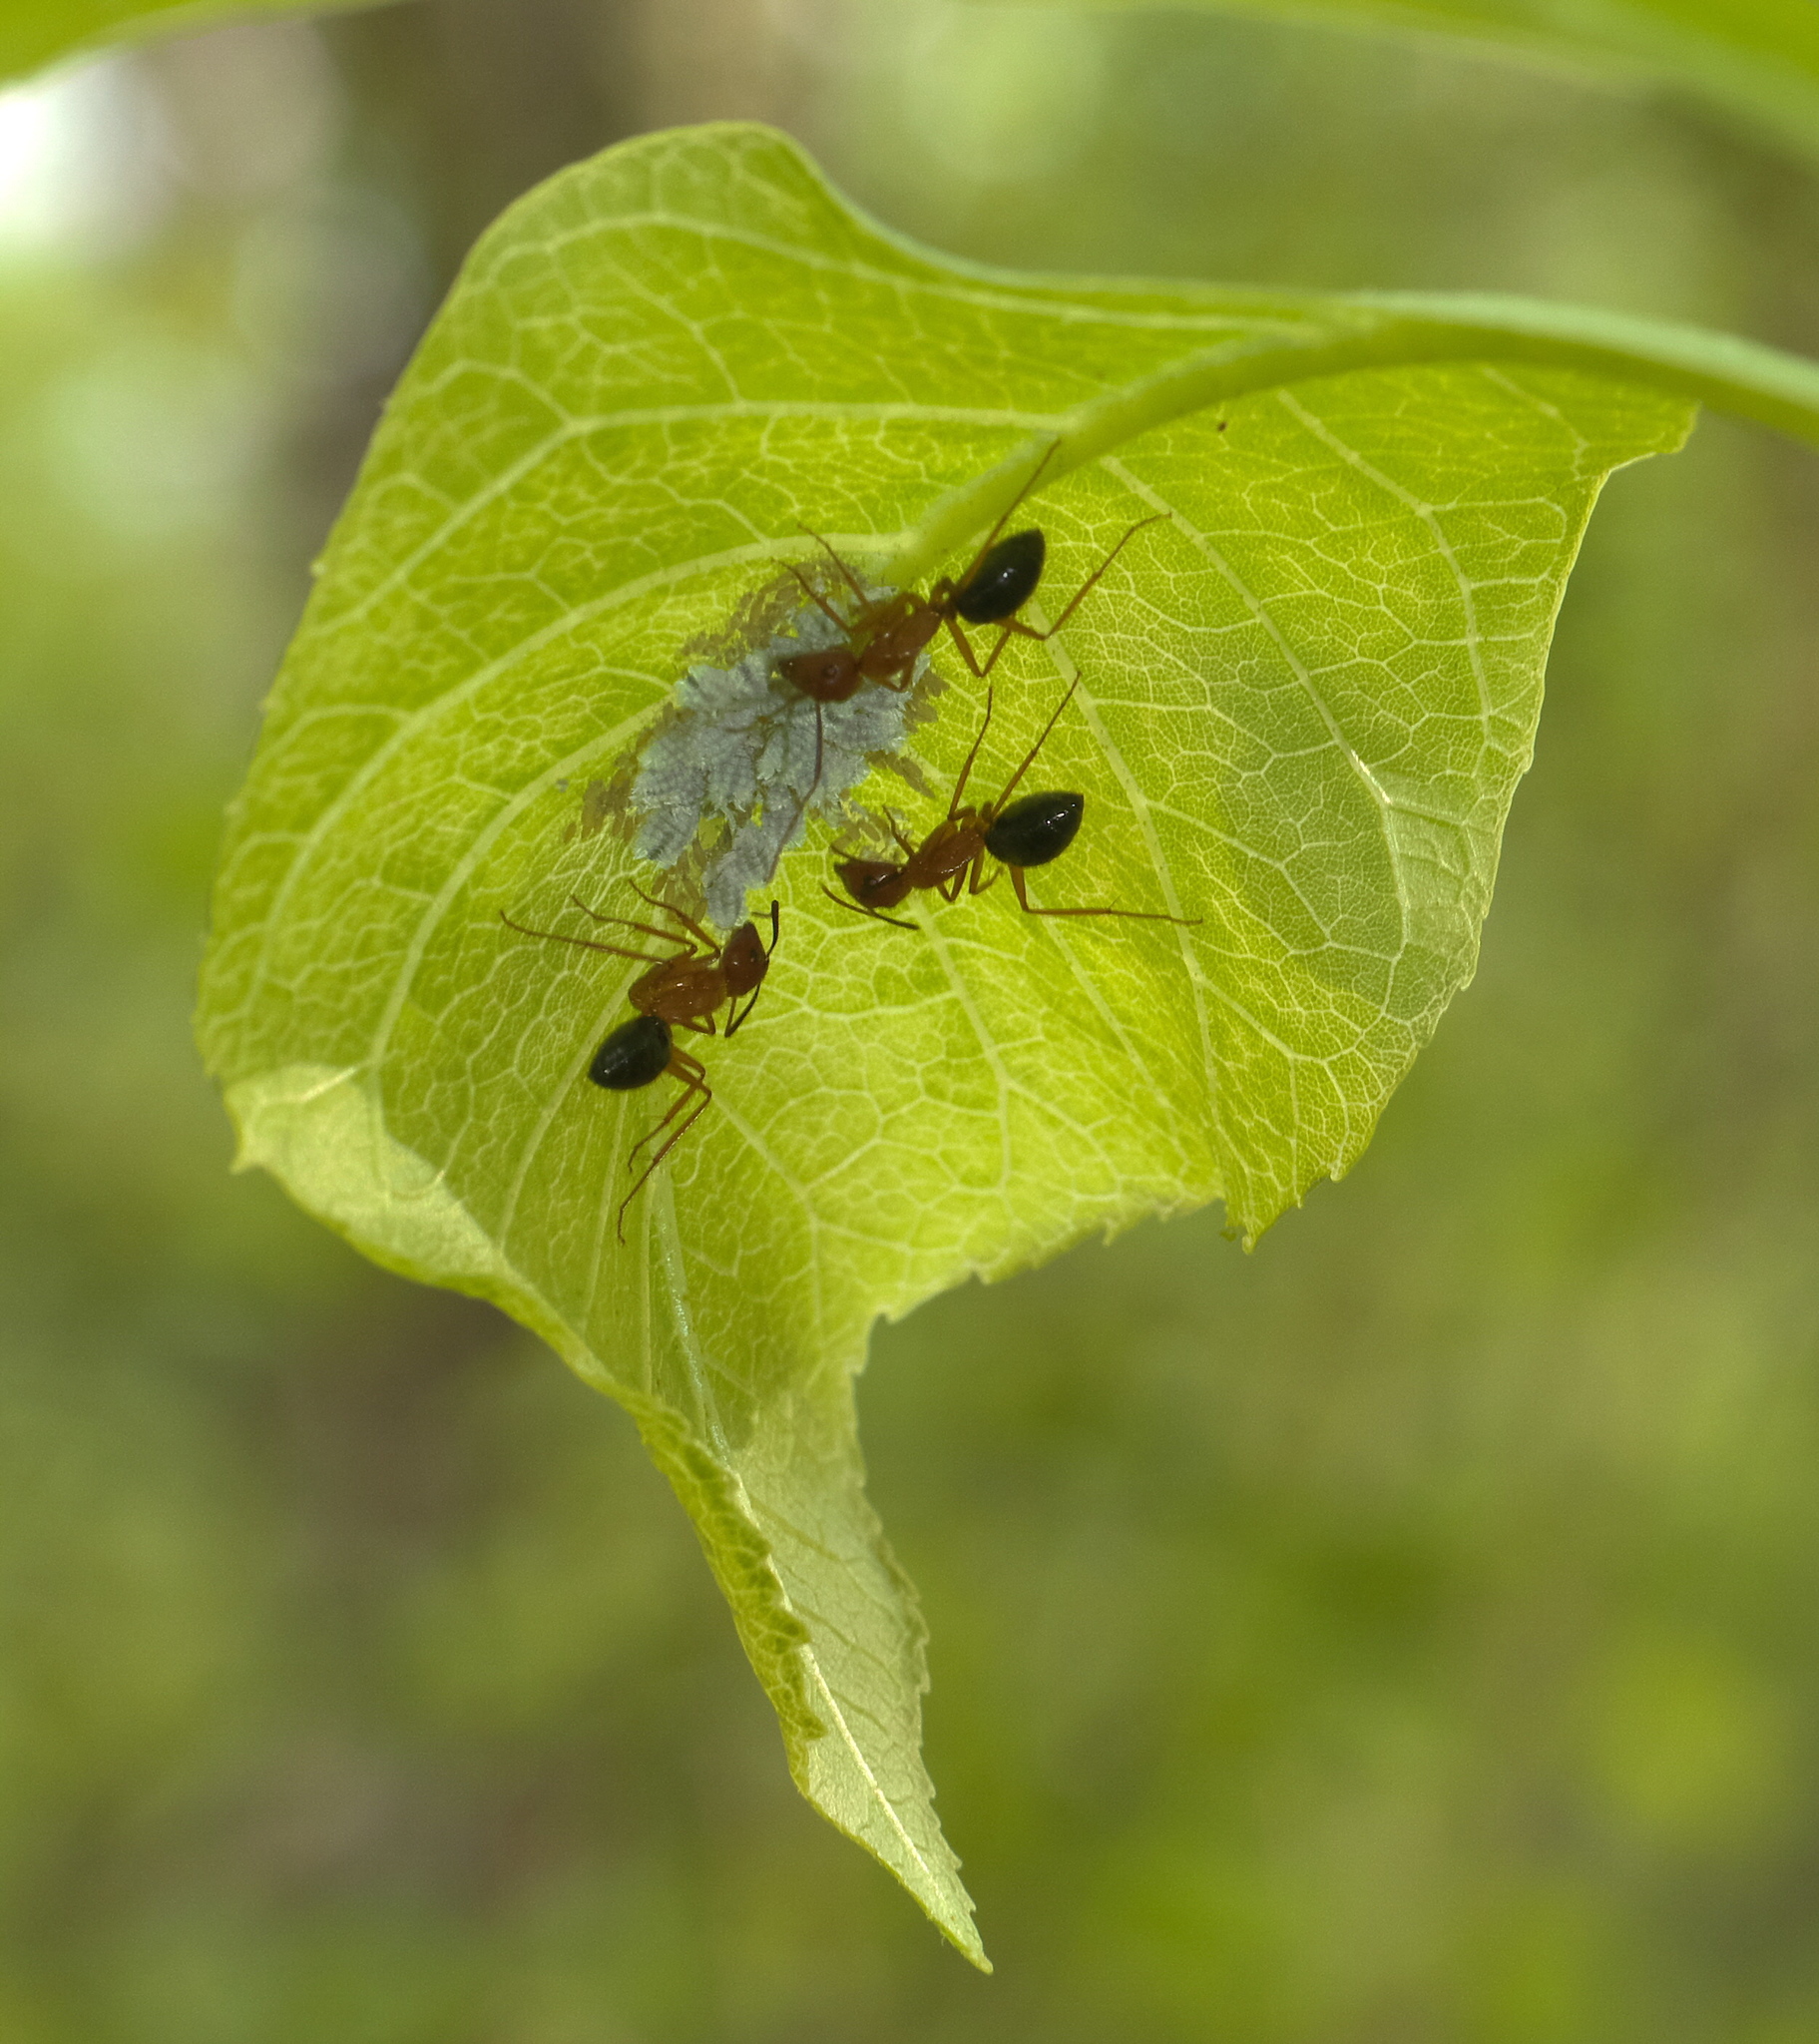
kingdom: Animalia
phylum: Arthropoda
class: Insecta
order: Hymenoptera
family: Formicidae
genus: Camponotus
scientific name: Camponotus floridanus
